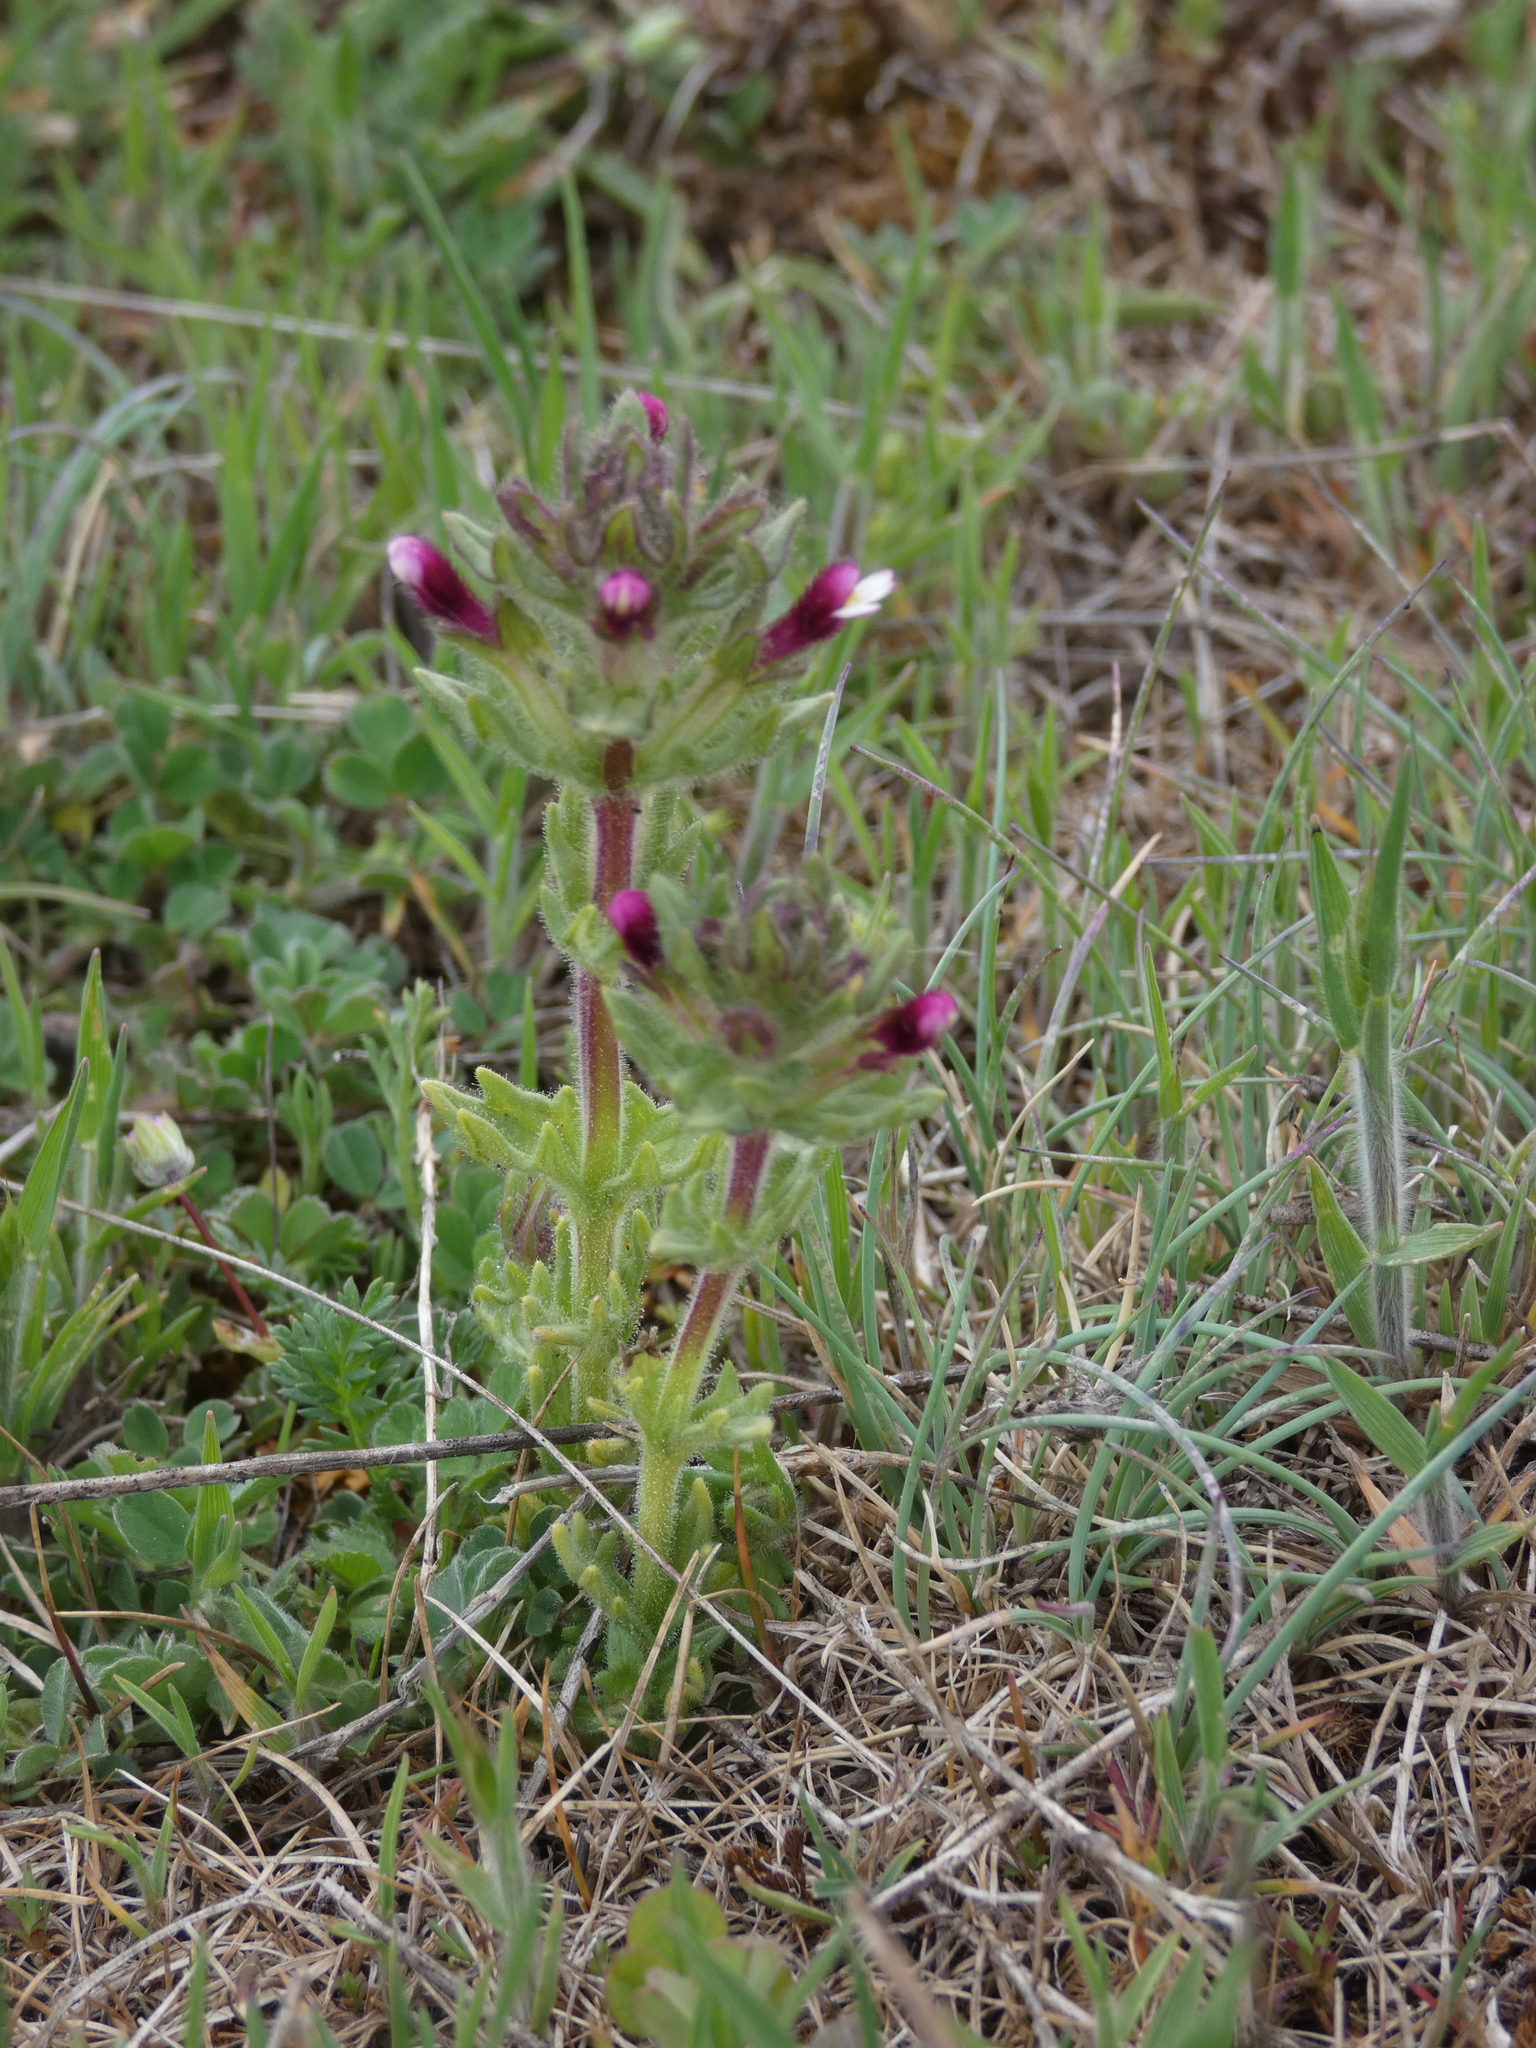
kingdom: Plantae
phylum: Tracheophyta
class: Magnoliopsida
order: Lamiales
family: Orobanchaceae
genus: Parentucellia
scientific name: Parentucellia latifolia
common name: Broadleaf glandweed
